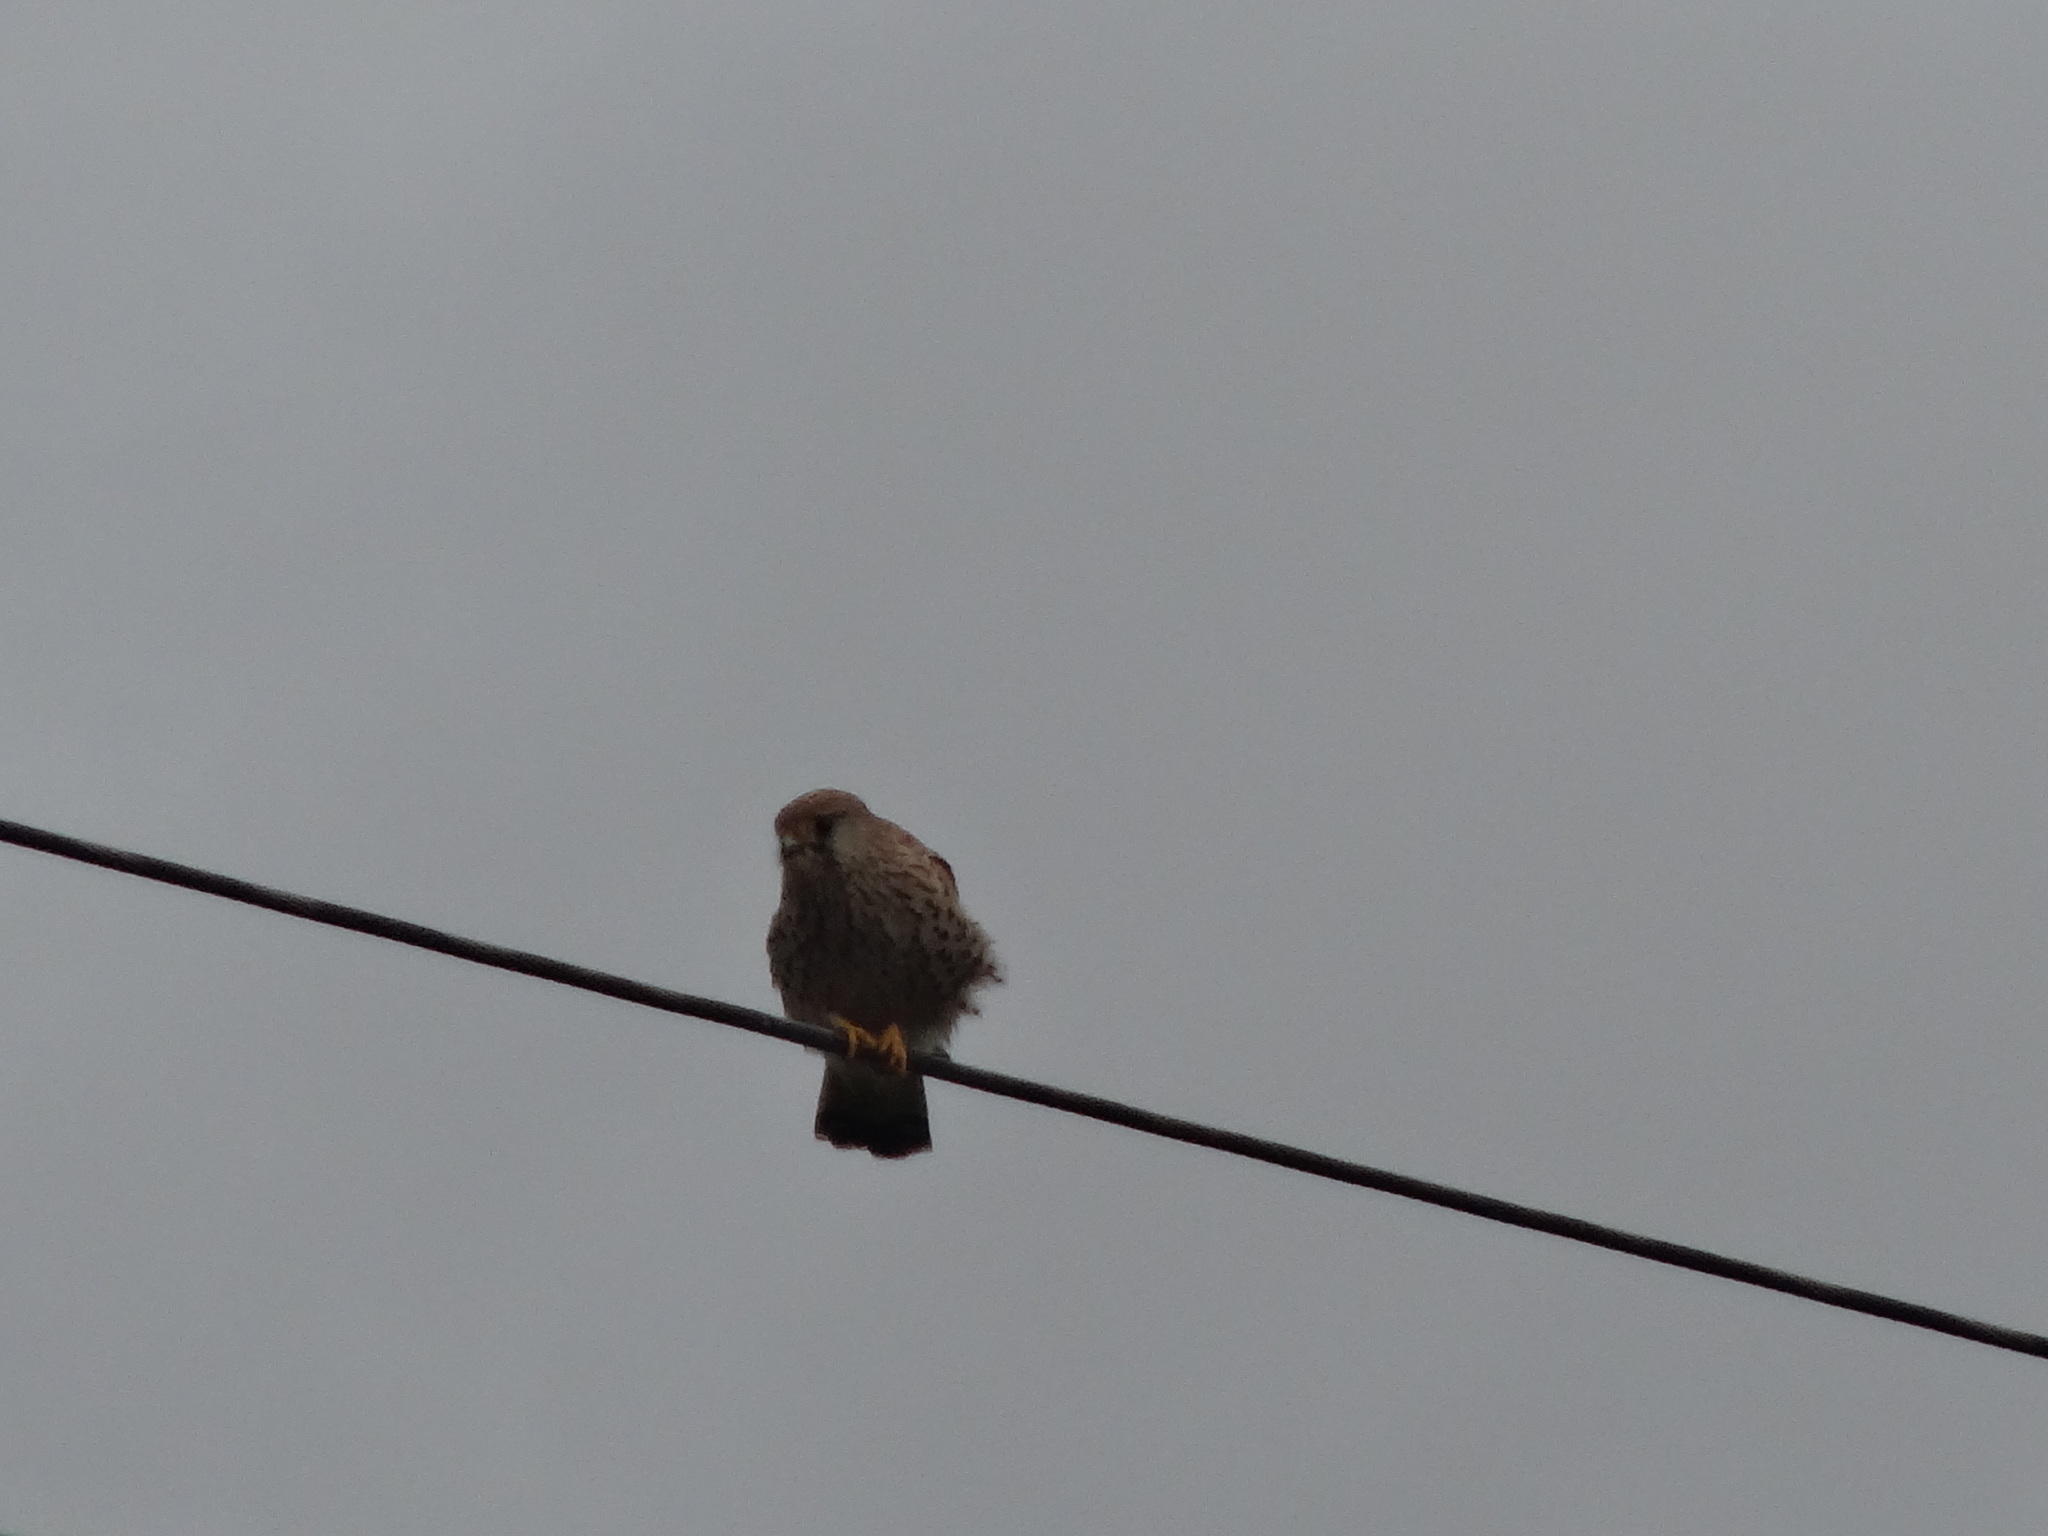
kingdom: Animalia
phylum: Chordata
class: Aves
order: Falconiformes
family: Falconidae
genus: Falco
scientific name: Falco tinnunculus
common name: Common kestrel
